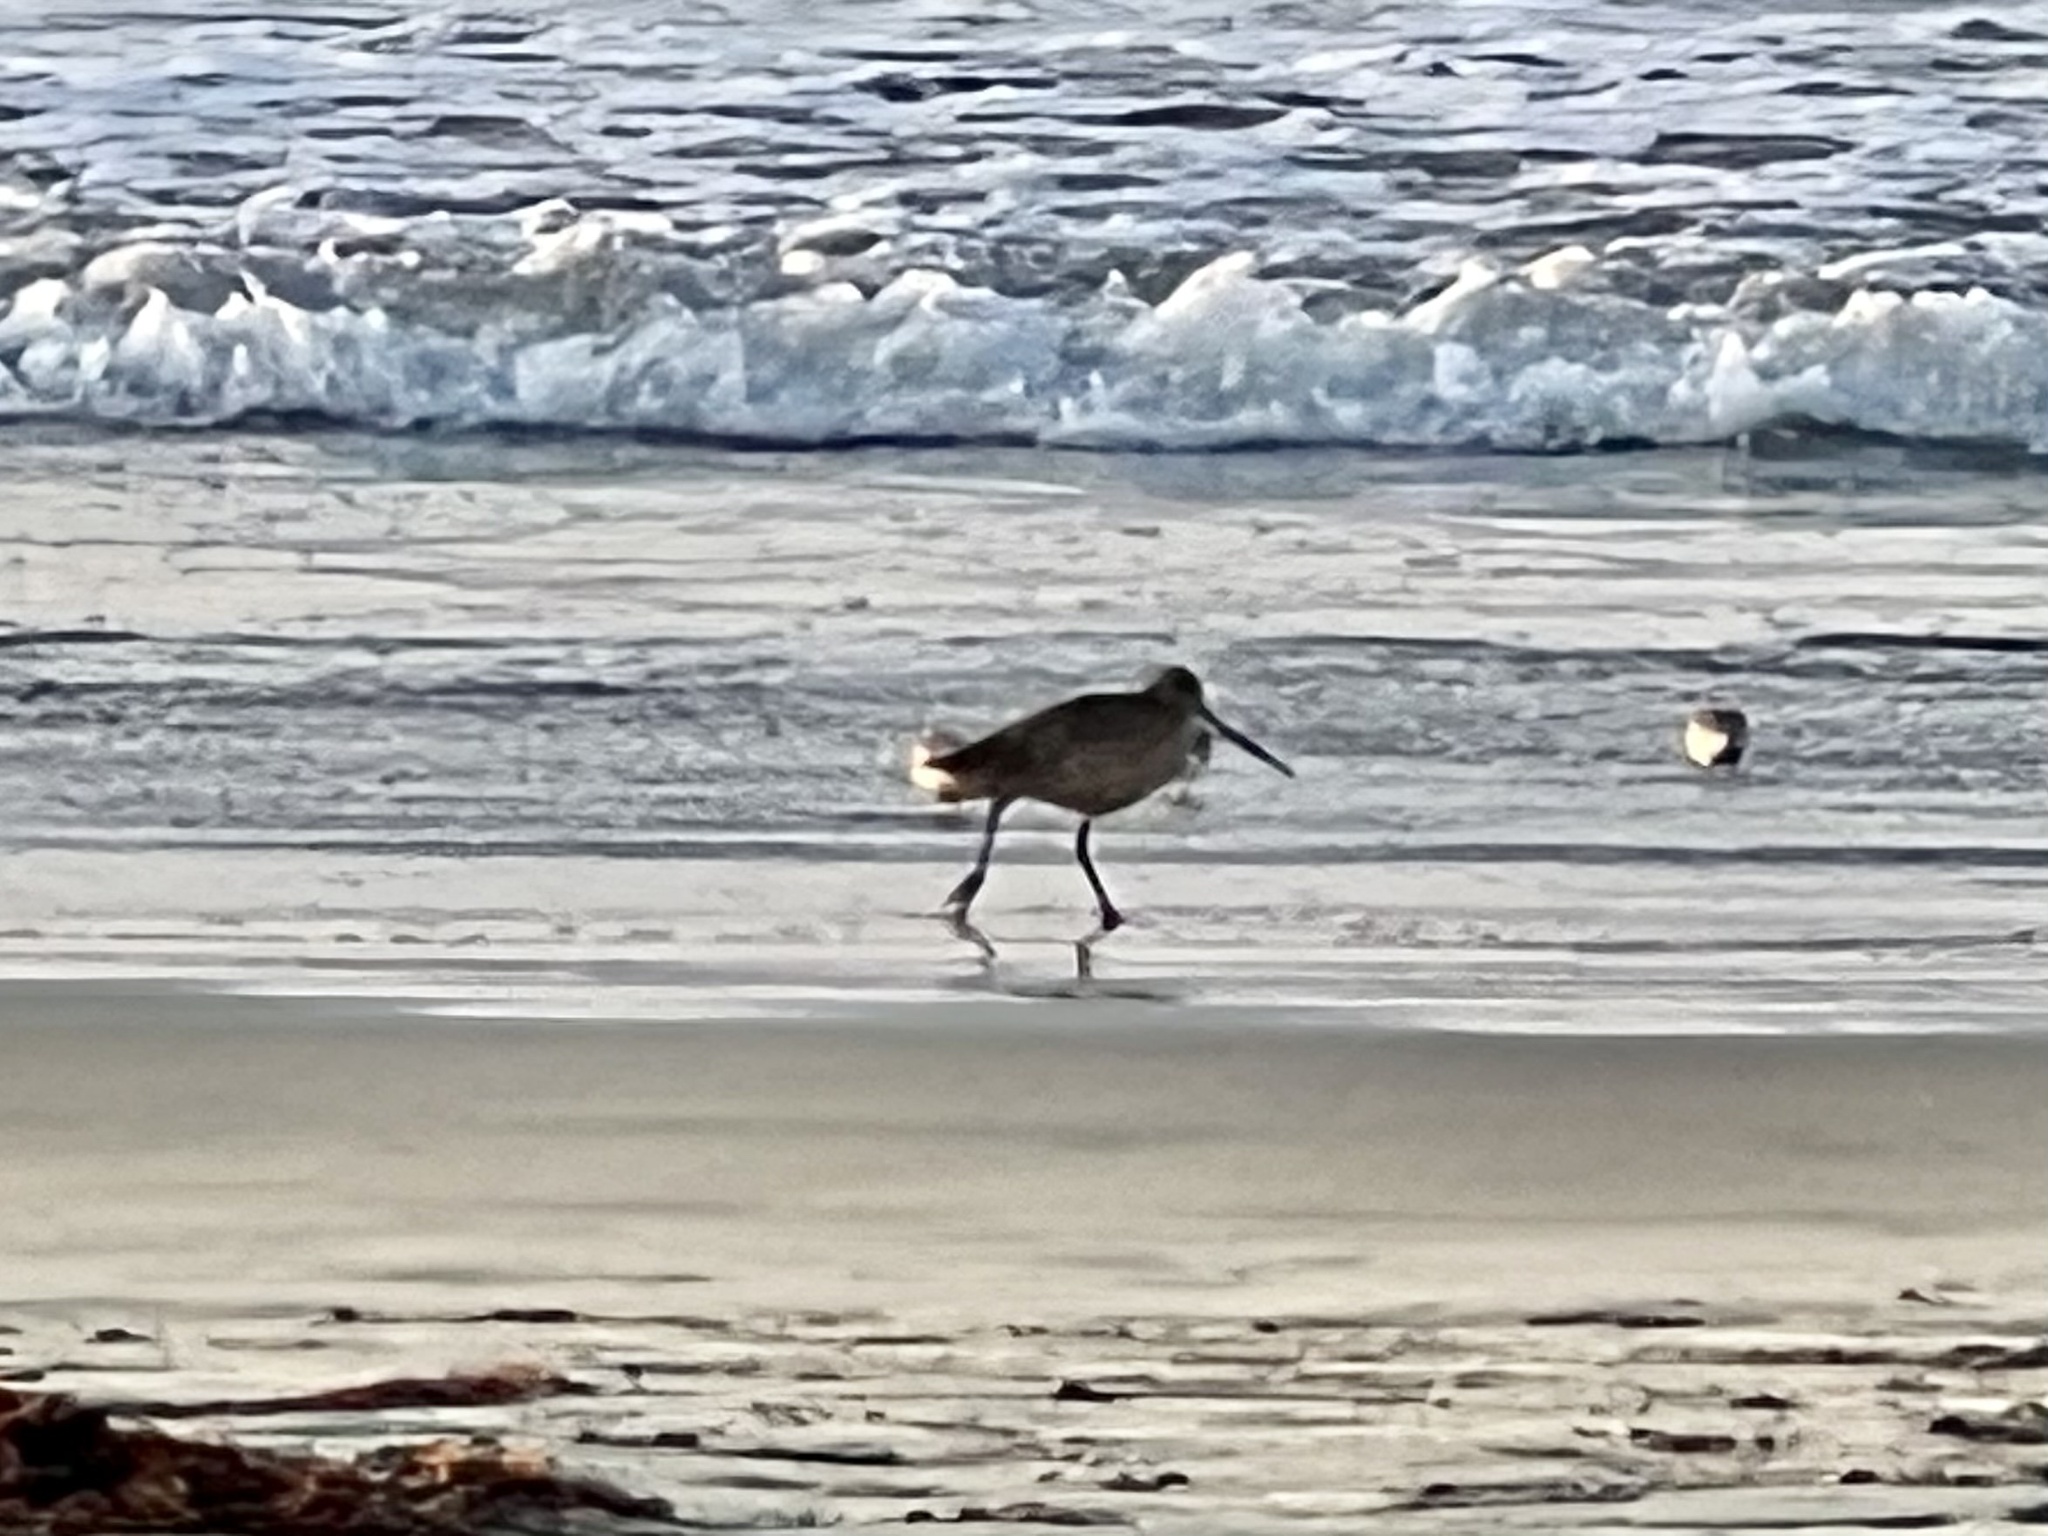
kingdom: Animalia
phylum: Chordata
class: Aves
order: Charadriiformes
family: Scolopacidae
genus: Limosa
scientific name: Limosa fedoa
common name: Marbled godwit
